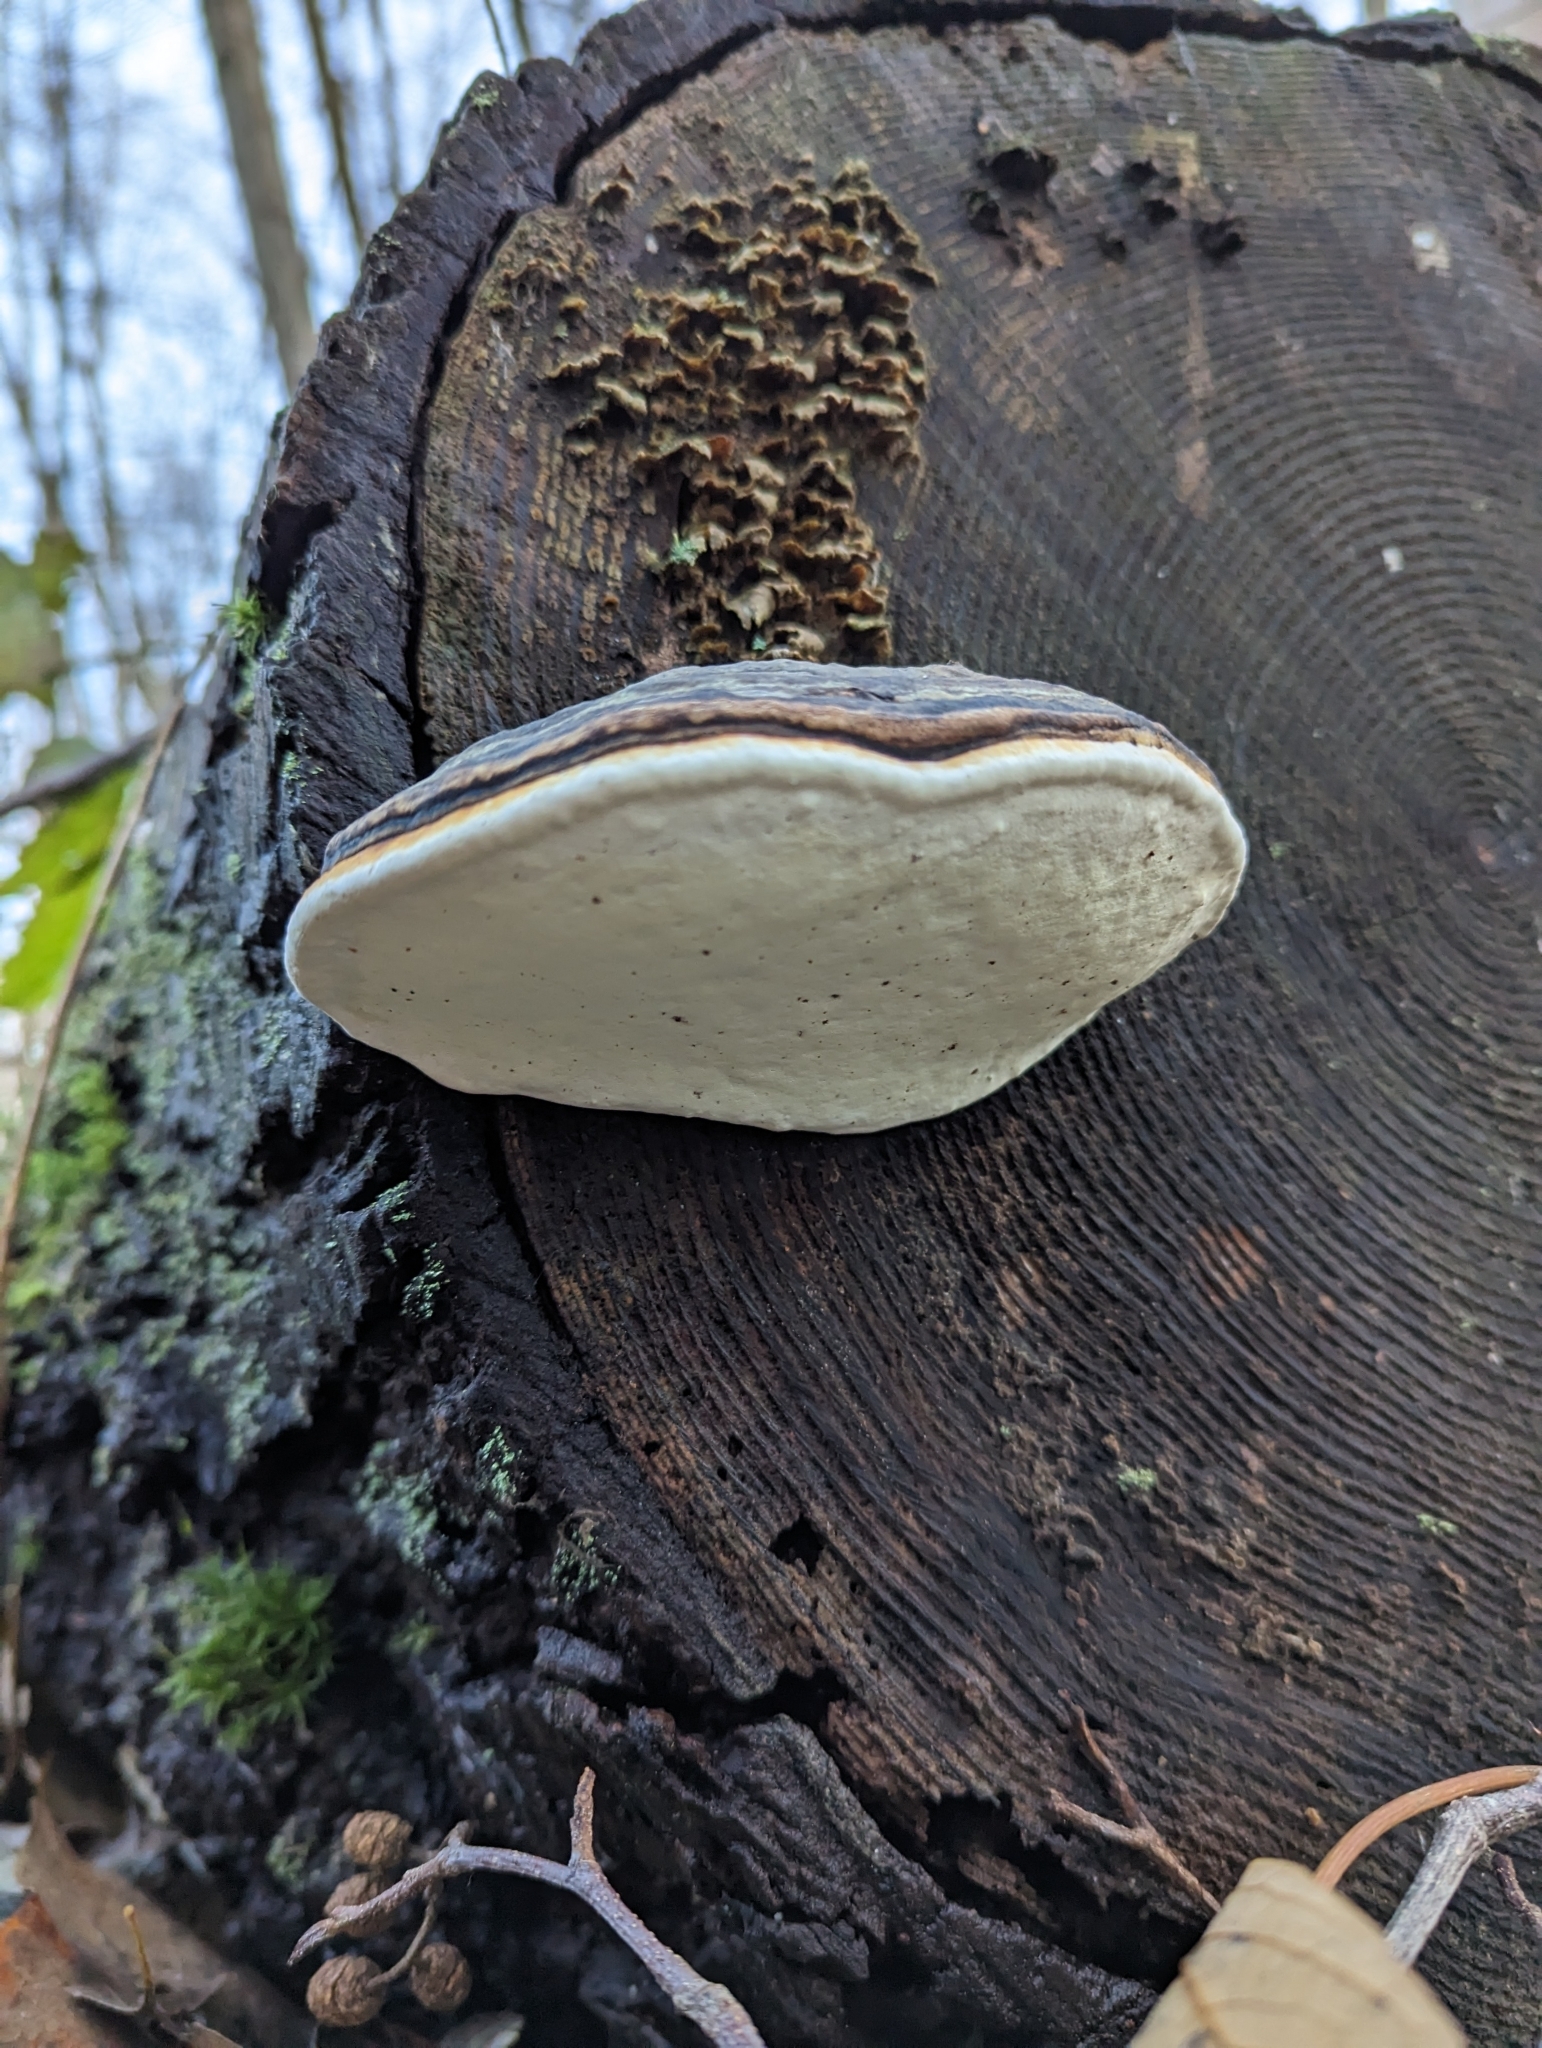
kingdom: Fungi
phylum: Basidiomycota
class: Agaricomycetes
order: Polyporales
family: Fomitopsidaceae
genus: Fomitopsis
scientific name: Fomitopsis mounceae
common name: Northern red belt
